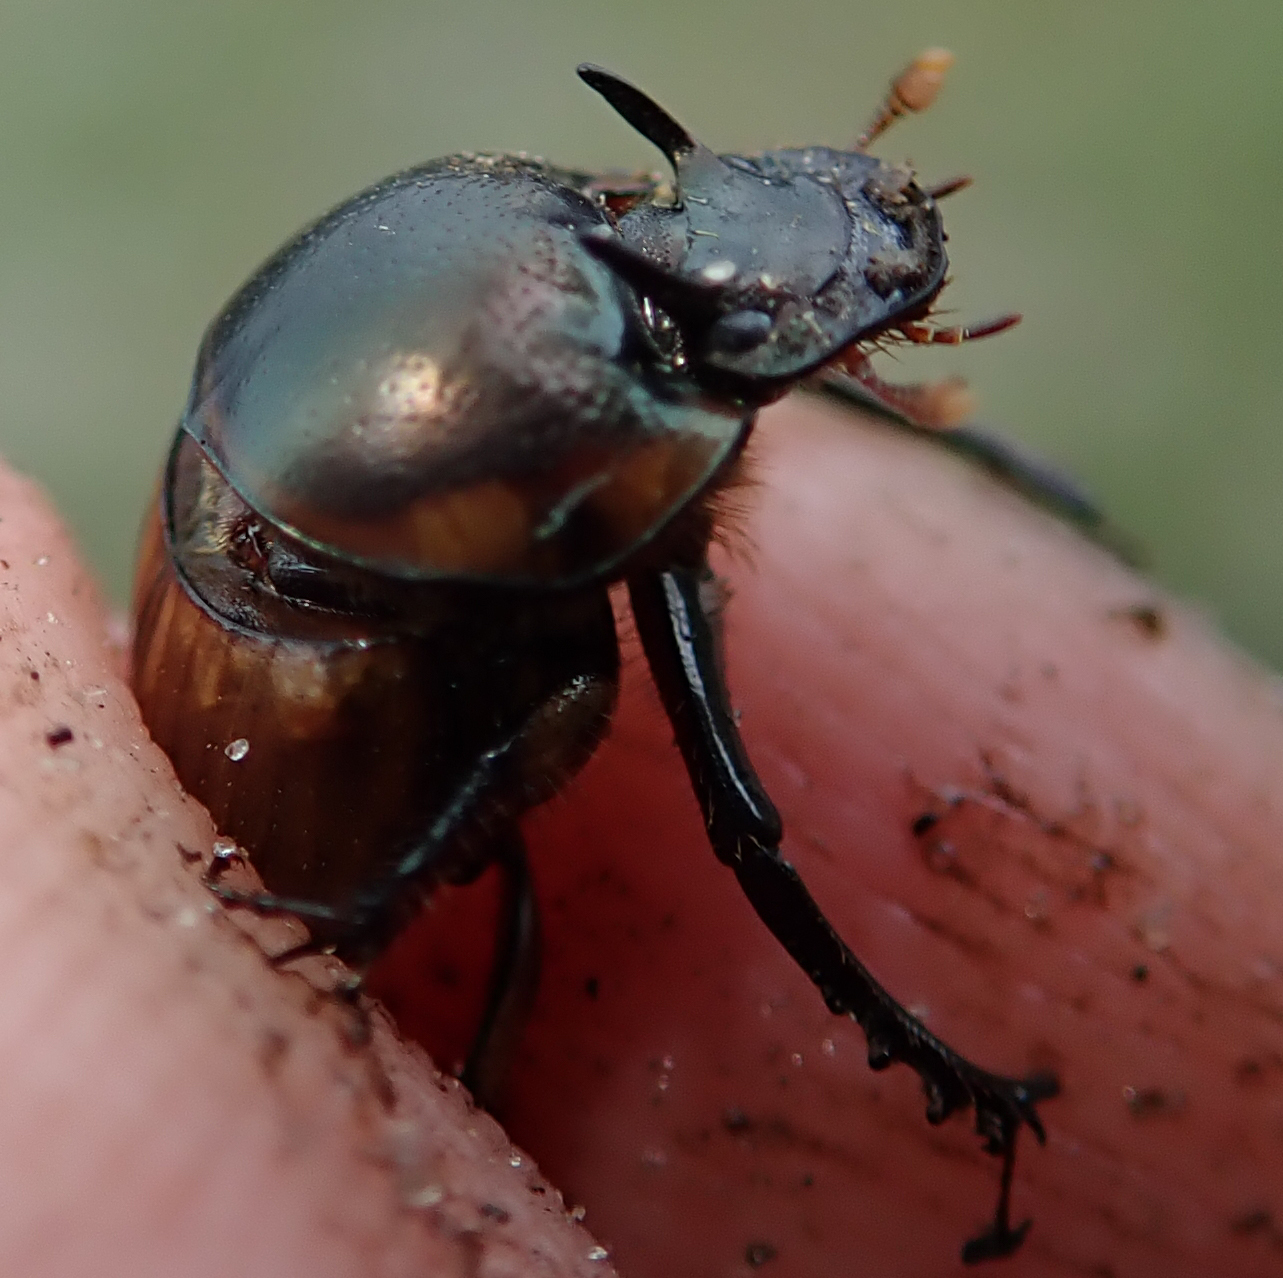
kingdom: Animalia
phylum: Arthropoda
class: Insecta
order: Coleoptera
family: Scarabaeidae
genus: Digitonthophagus
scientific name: Digitonthophagus gazella
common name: Brown dung beetle
